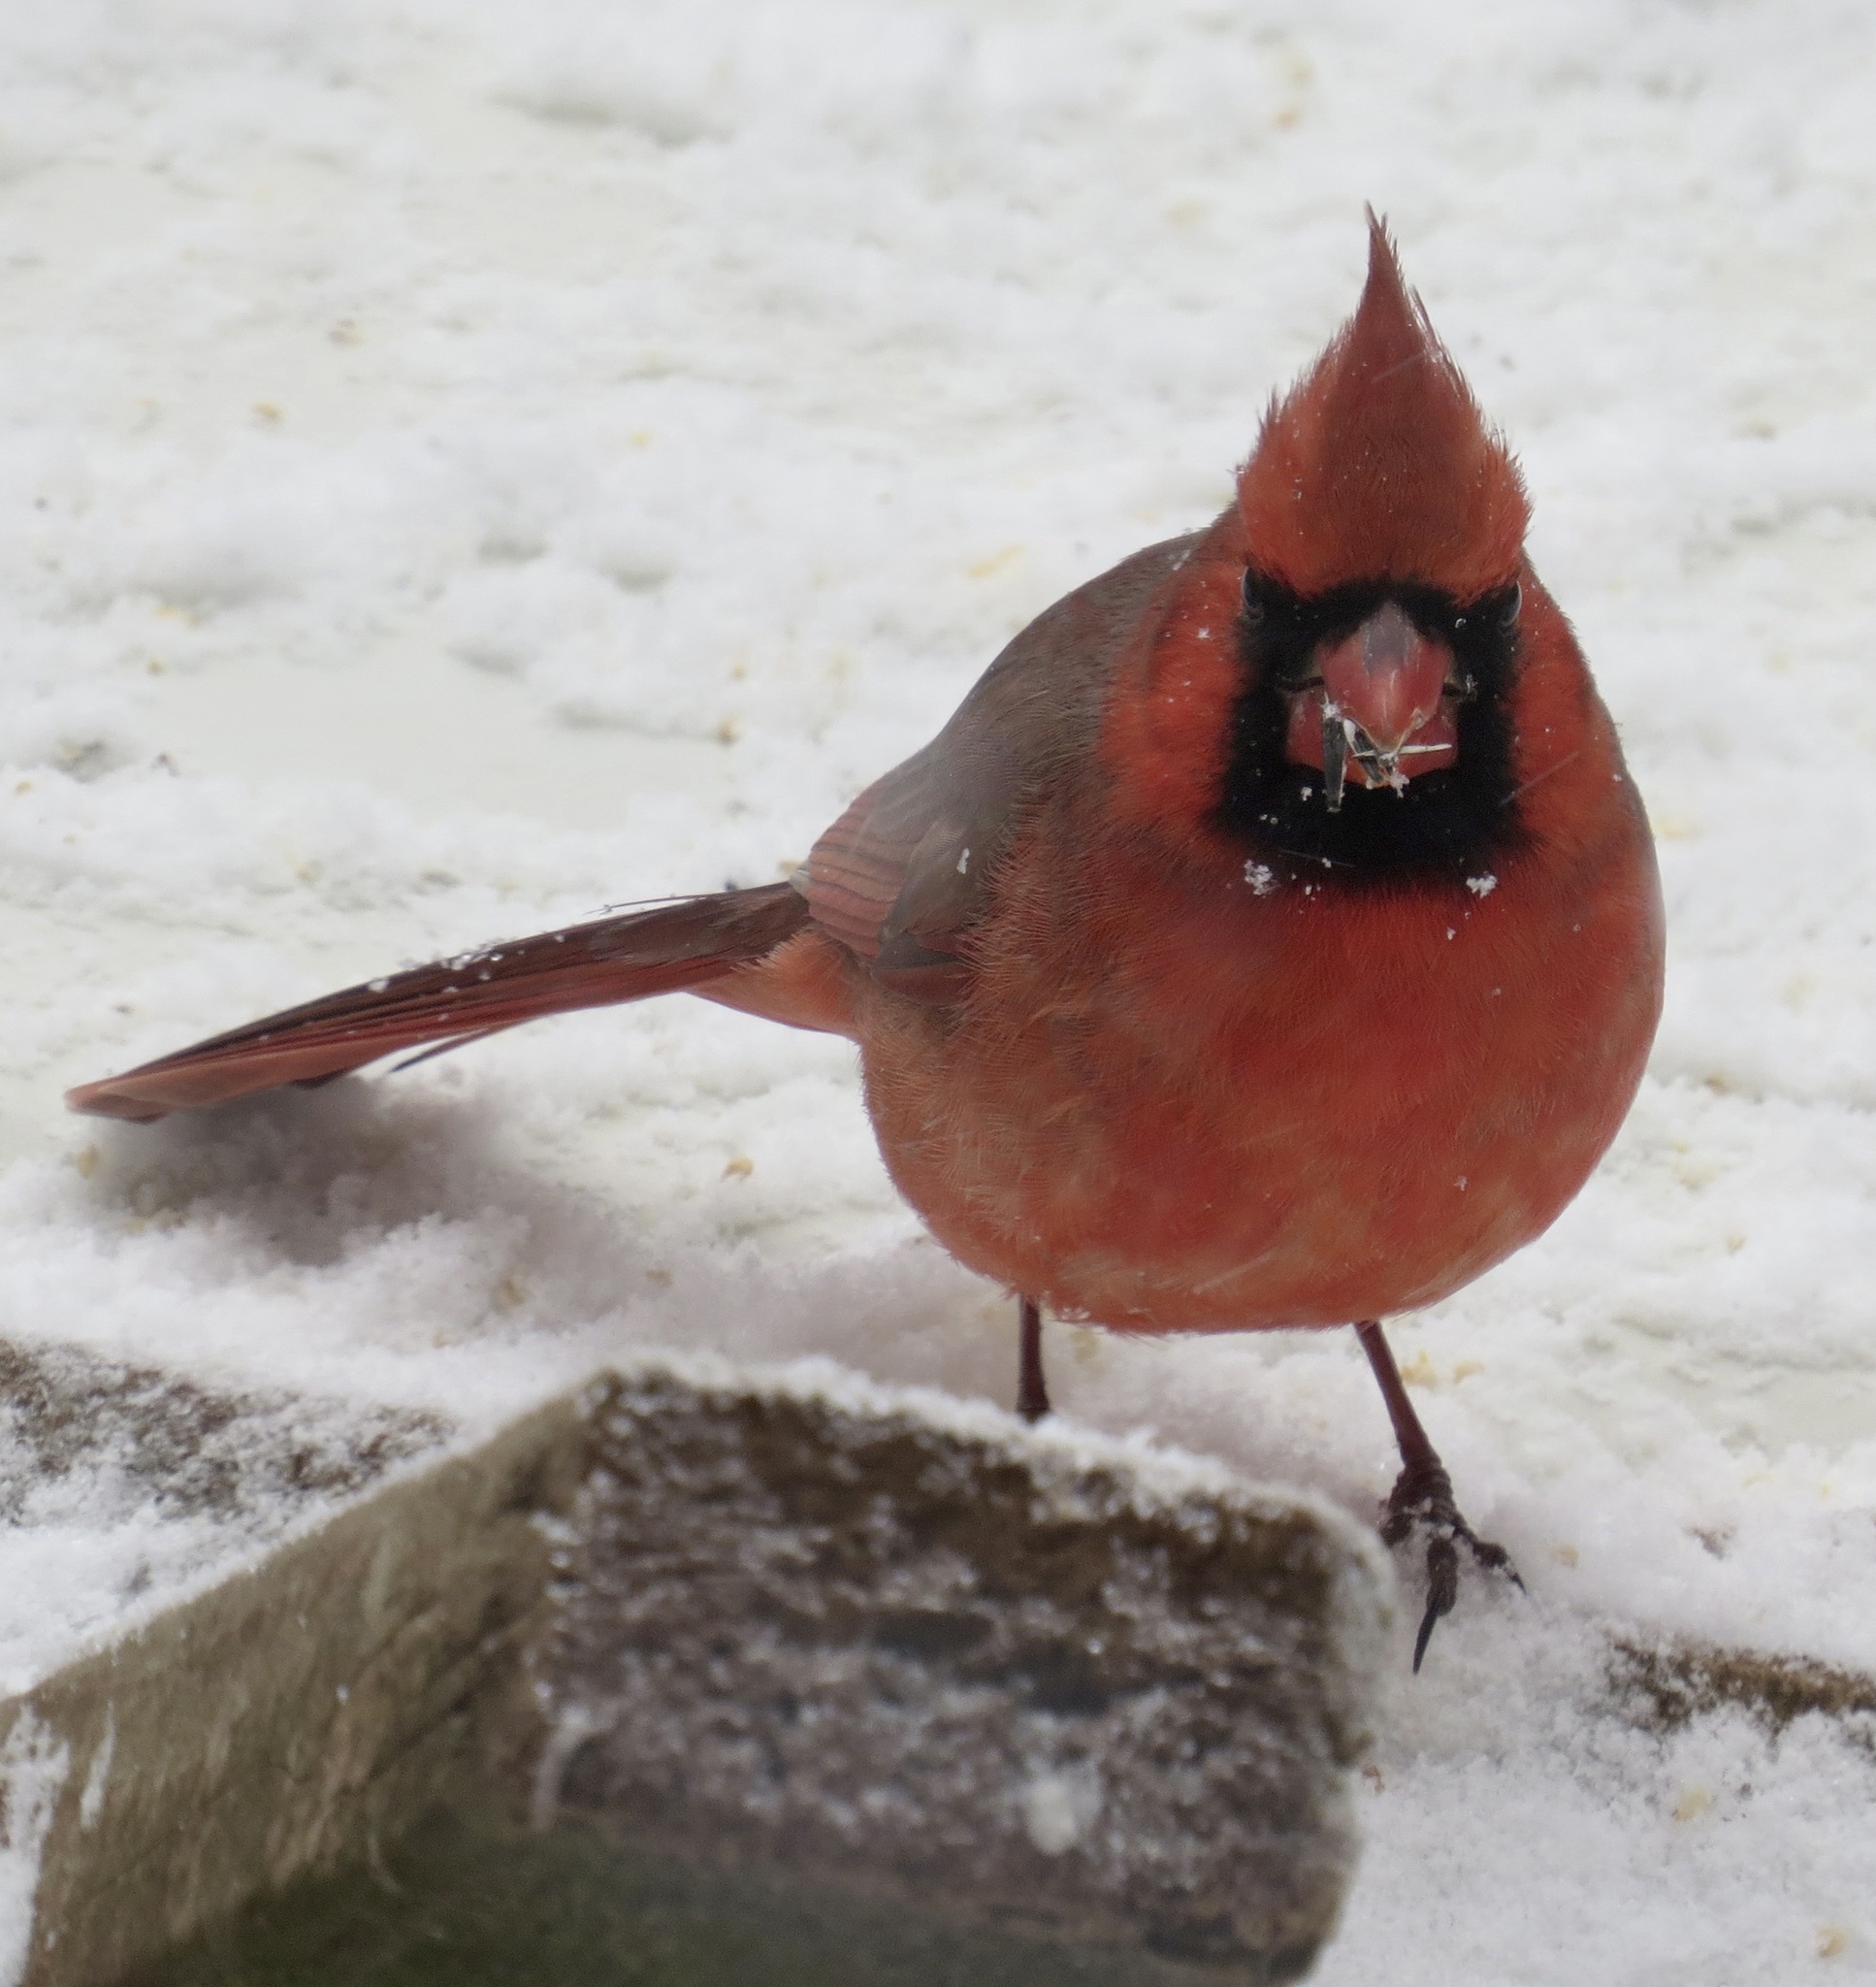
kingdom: Animalia
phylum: Chordata
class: Aves
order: Passeriformes
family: Cardinalidae
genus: Cardinalis
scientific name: Cardinalis cardinalis
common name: Northern cardinal
